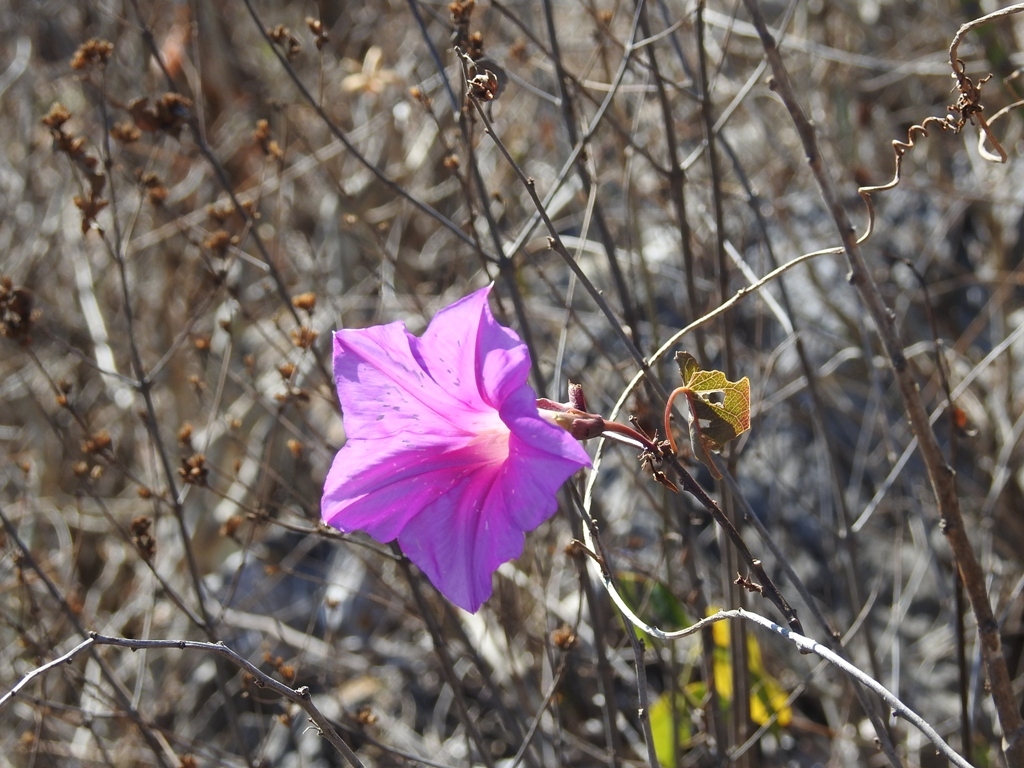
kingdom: Plantae
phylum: Tracheophyta
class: Magnoliopsida
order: Solanales
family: Convolvulaceae
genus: Ipomoea
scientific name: Ipomoea bernoulliana
